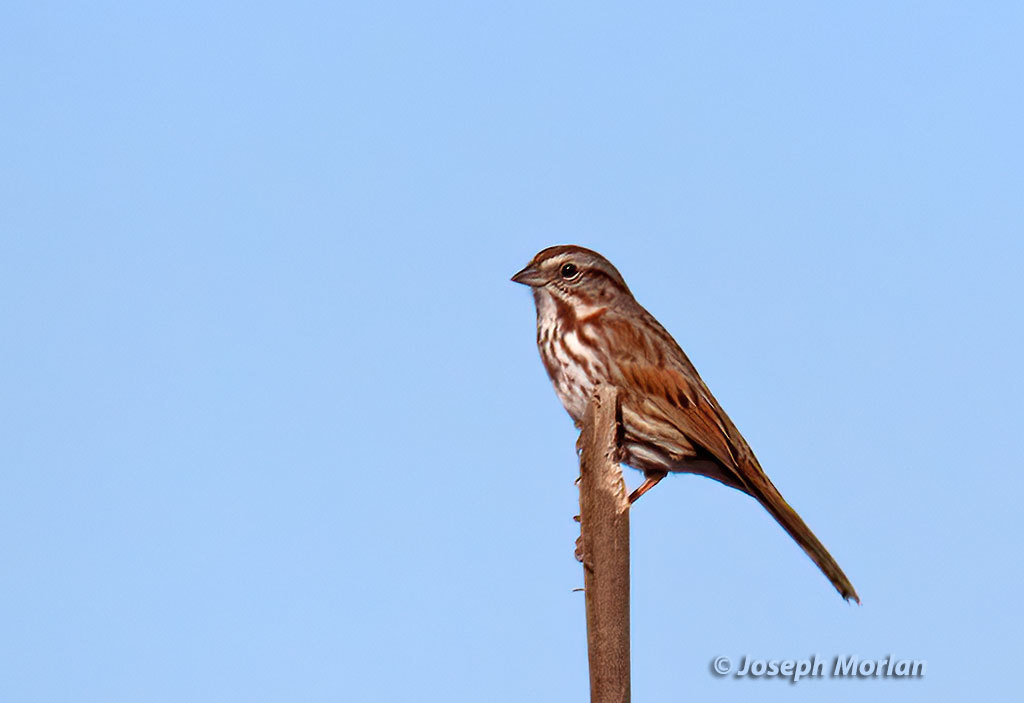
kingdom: Animalia
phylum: Chordata
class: Aves
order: Passeriformes
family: Passerellidae
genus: Melospiza
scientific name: Melospiza melodia
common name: Song sparrow
